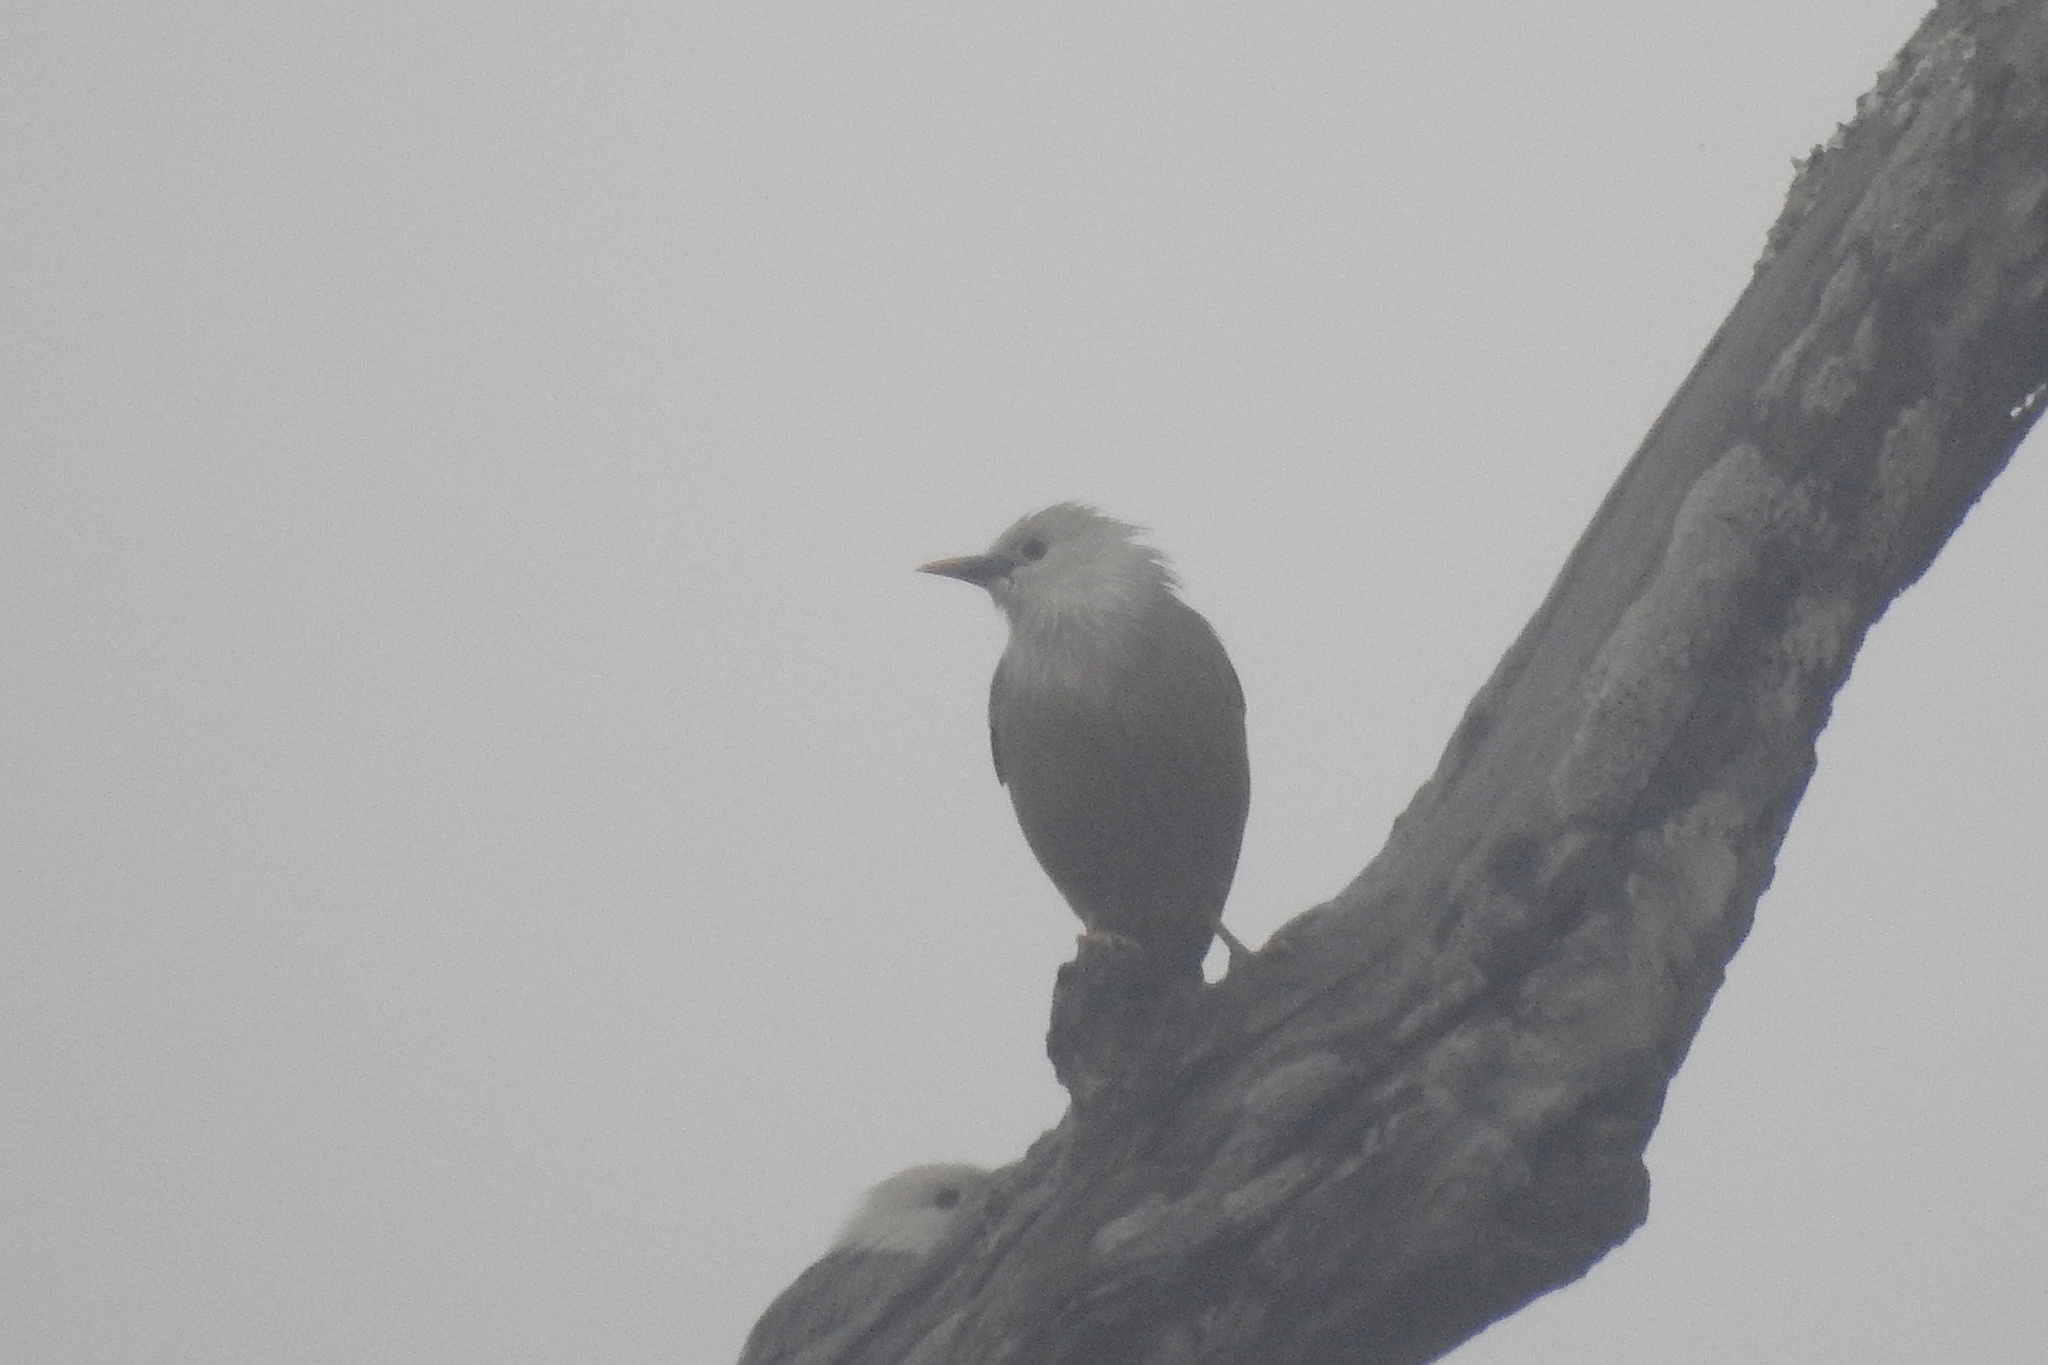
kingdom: Animalia
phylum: Chordata
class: Aves
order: Passeriformes
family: Sturnidae
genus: Sturnia
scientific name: Sturnia blythii
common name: Malabar starling
